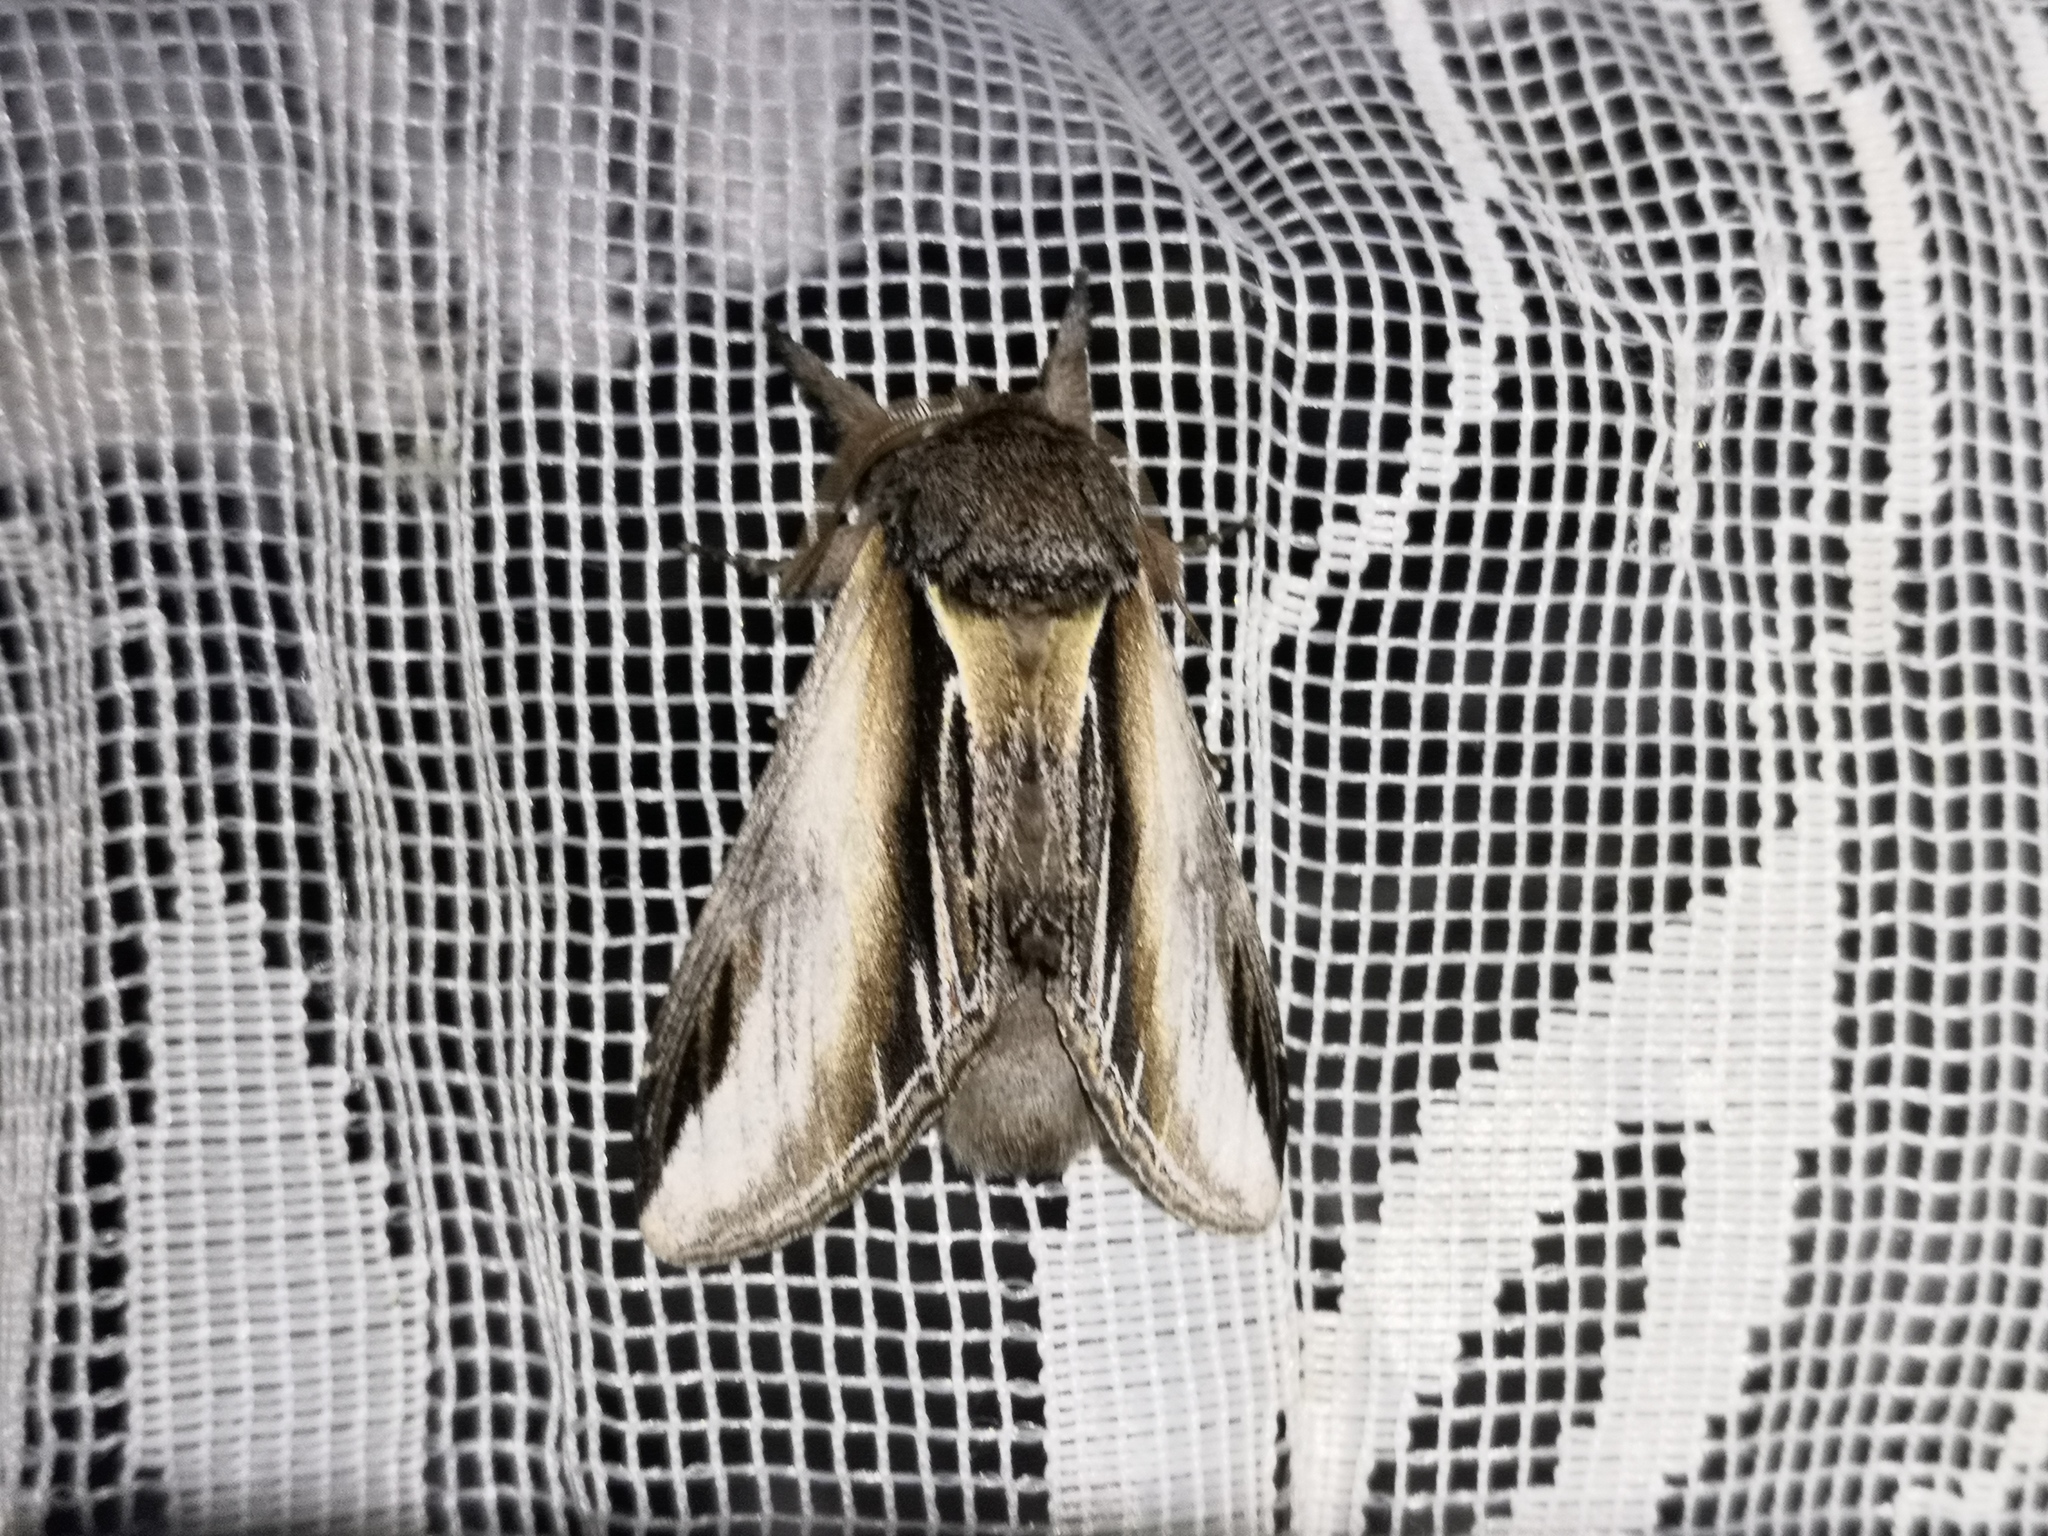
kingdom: Animalia
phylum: Arthropoda
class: Insecta
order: Lepidoptera
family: Notodontidae
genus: Pheosia
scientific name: Pheosia tremula
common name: Swallow prominent
